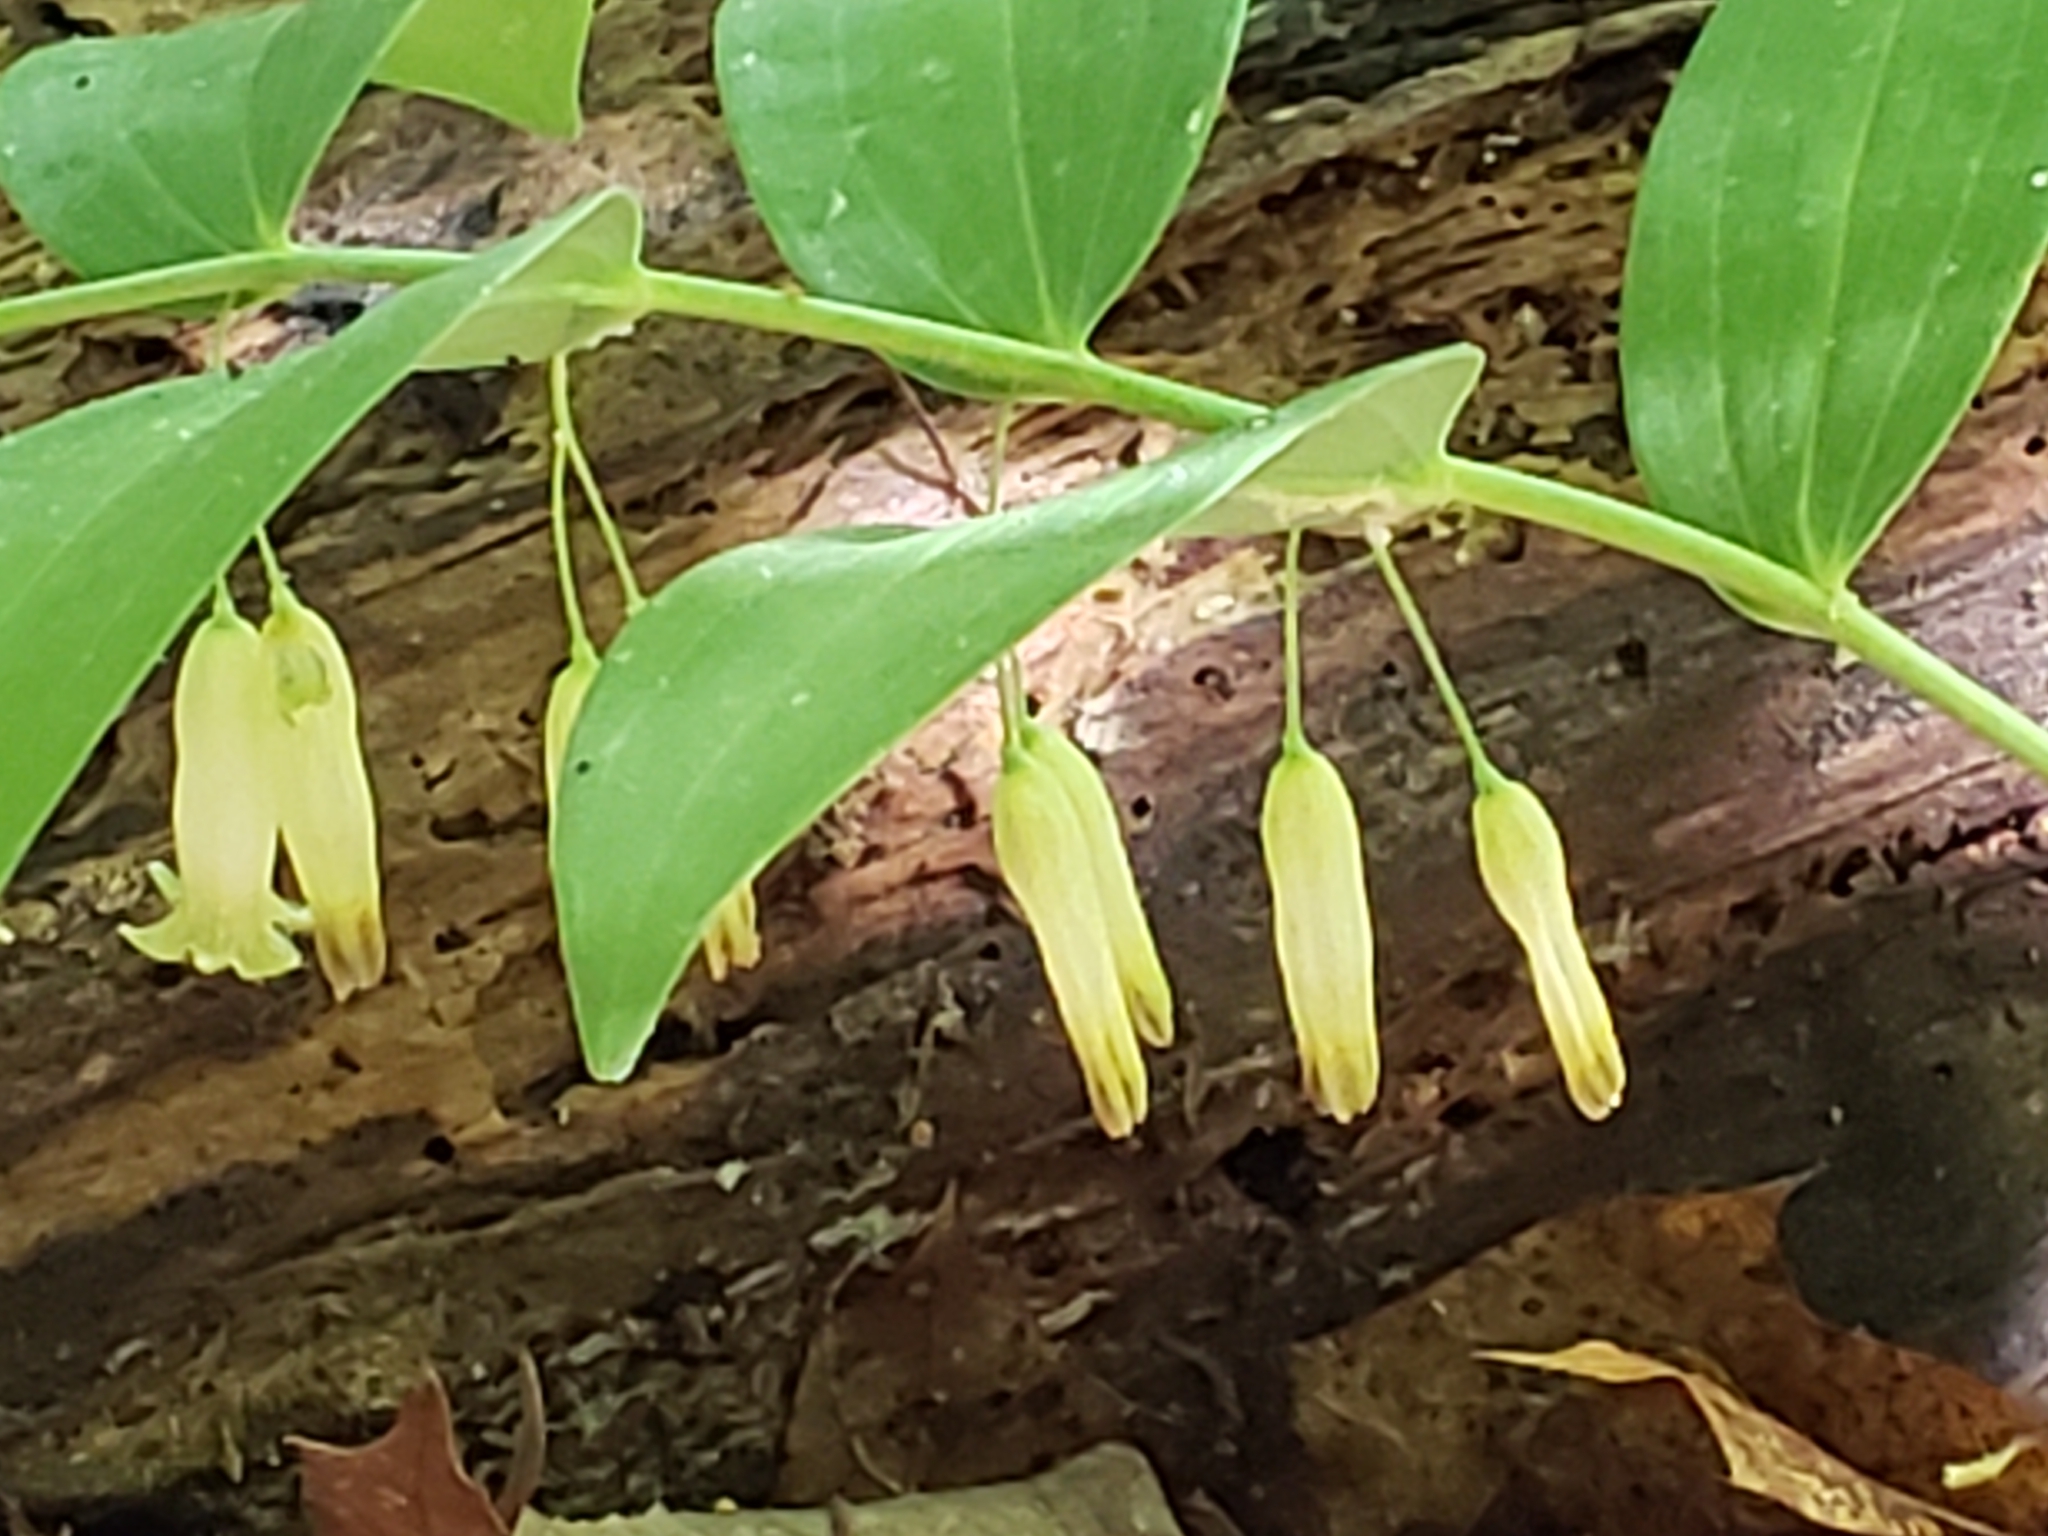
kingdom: Plantae
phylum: Tracheophyta
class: Liliopsida
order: Asparagales
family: Asparagaceae
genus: Polygonatum
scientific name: Polygonatum biflorum
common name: American solomon's-seal
